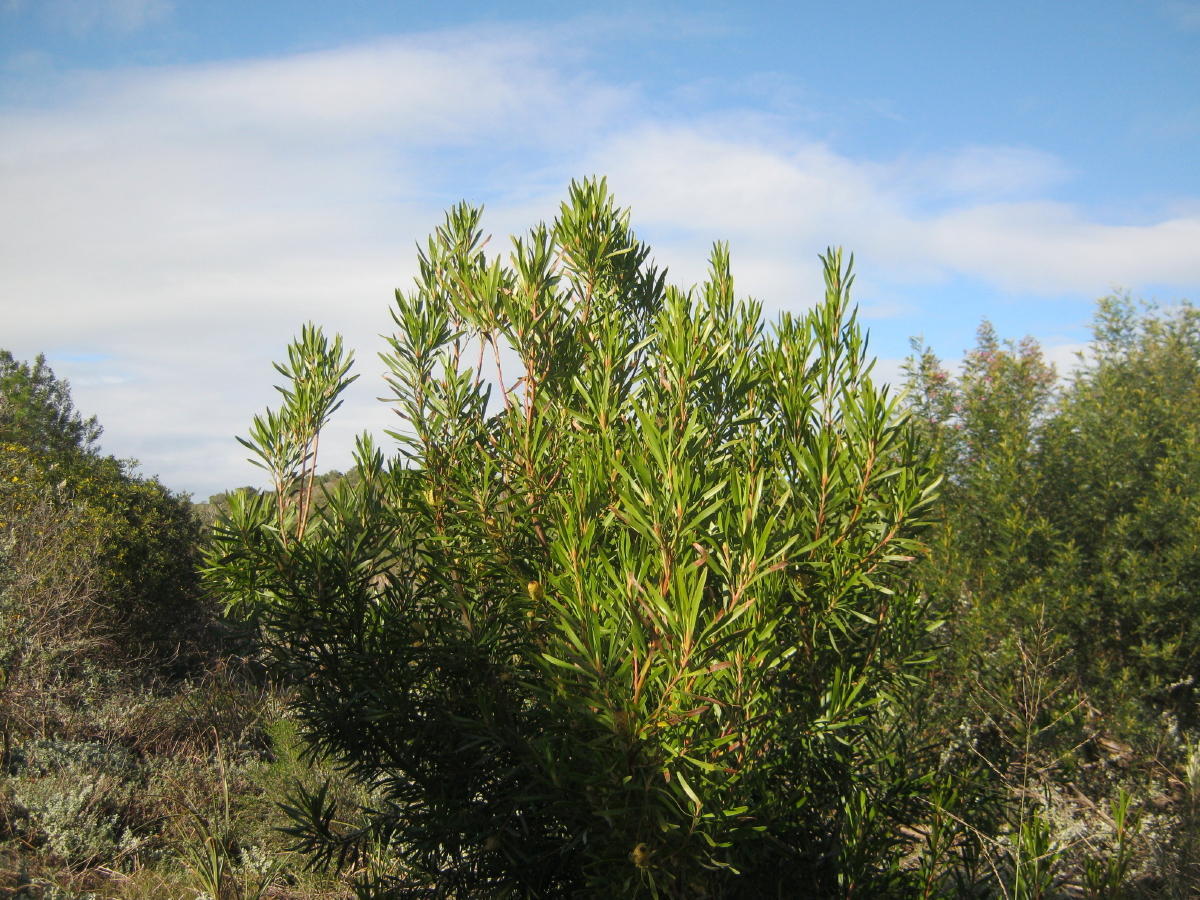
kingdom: Plantae
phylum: Tracheophyta
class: Magnoliopsida
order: Proteales
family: Proteaceae
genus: Leucadendron
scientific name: Leucadendron eucalyptifolium
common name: Gum-leaved conebush
